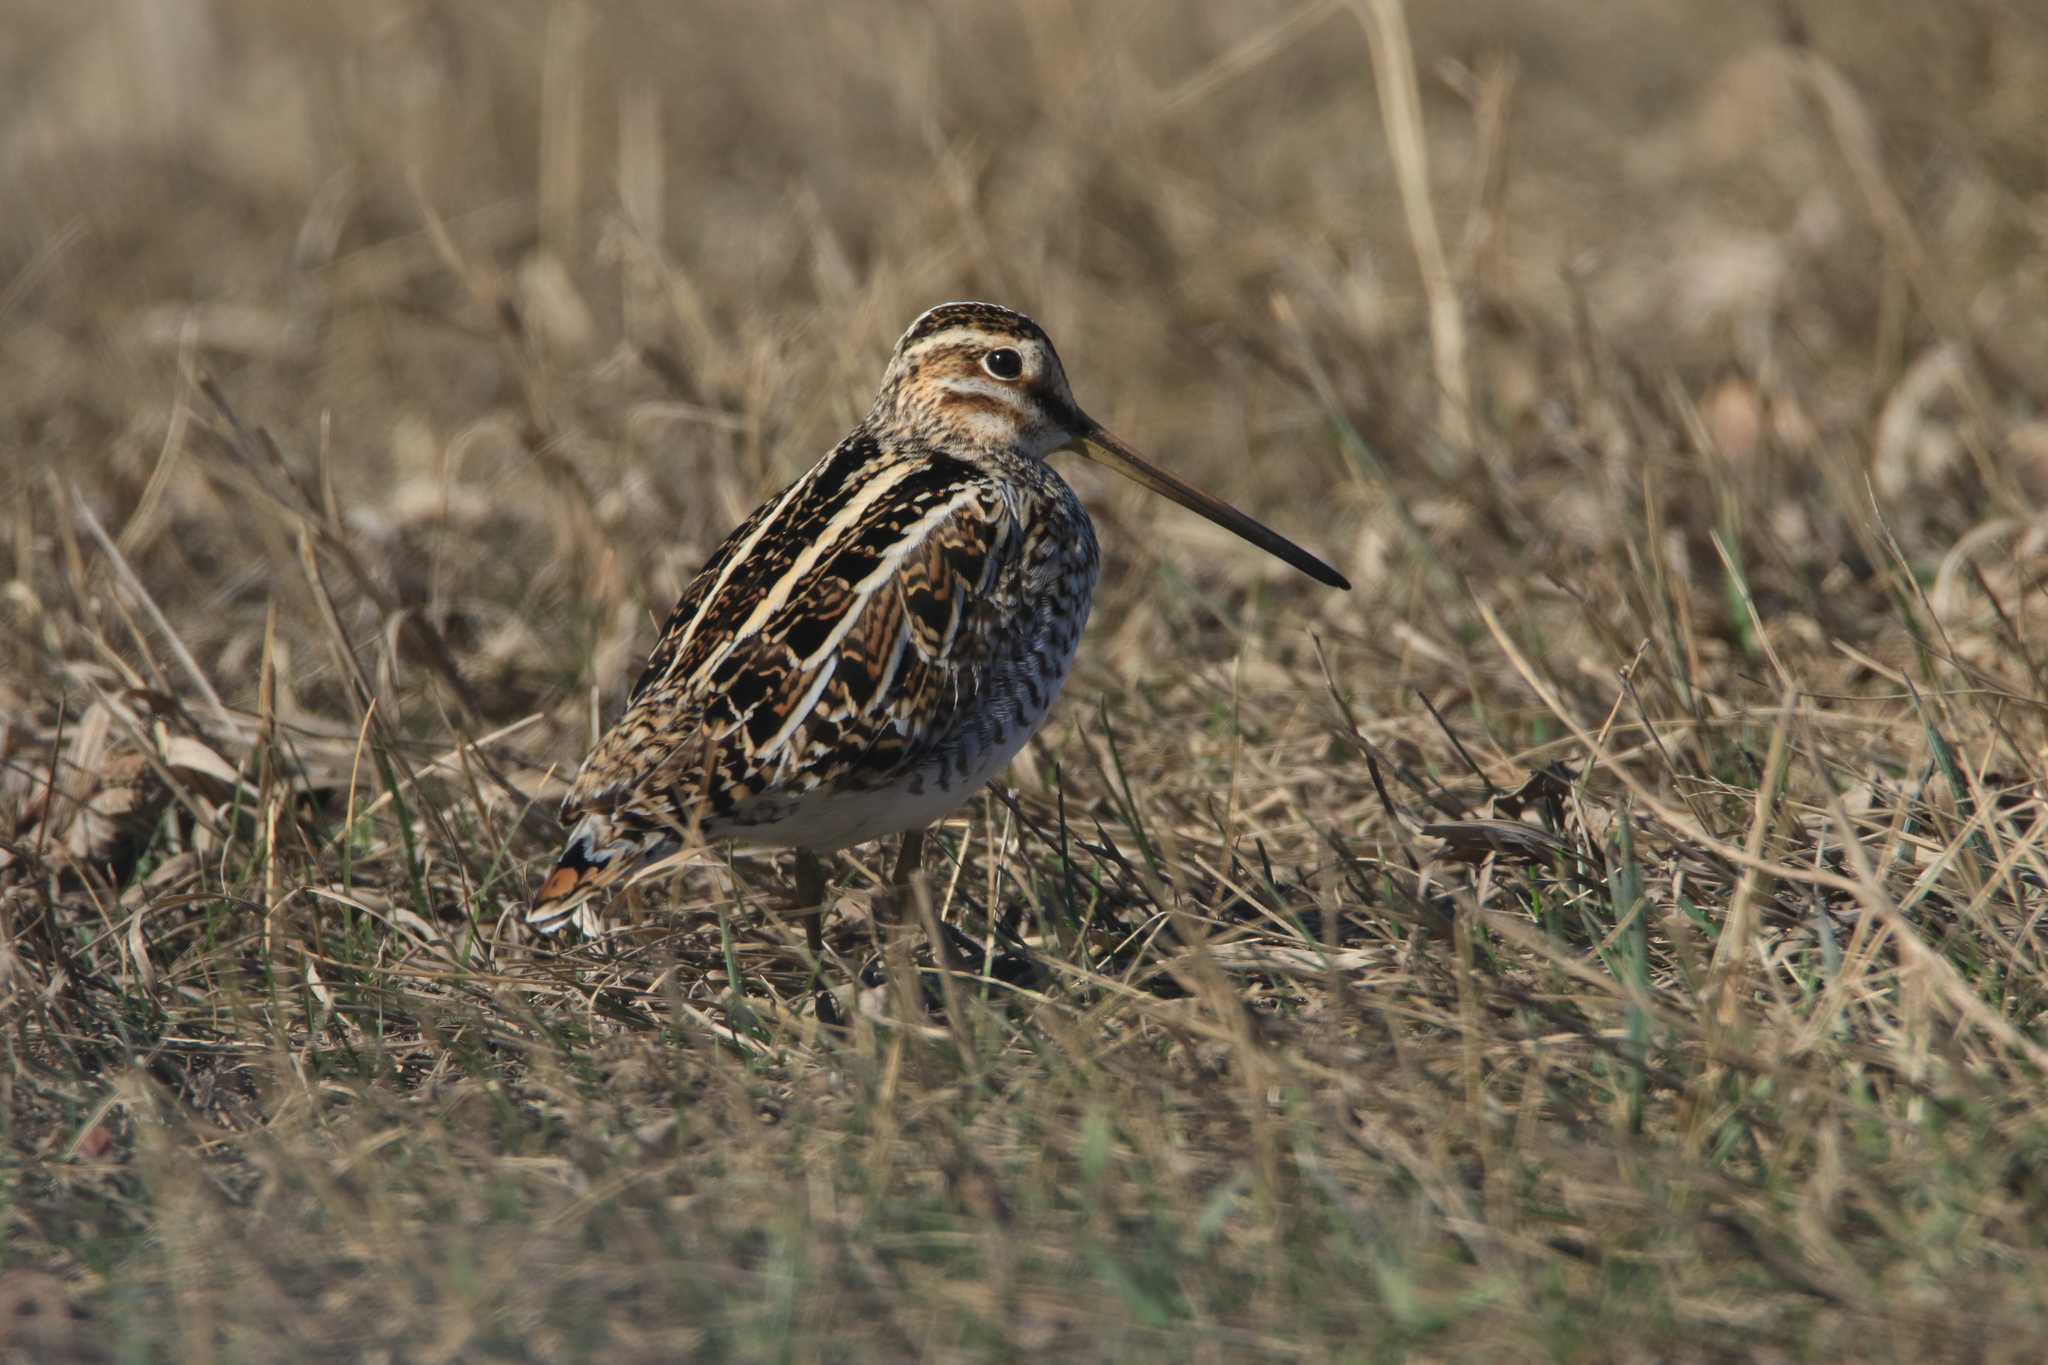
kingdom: Animalia
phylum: Chordata
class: Aves
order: Charadriiformes
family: Scolopacidae
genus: Gallinago
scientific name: Gallinago gallinago
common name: Common snipe
